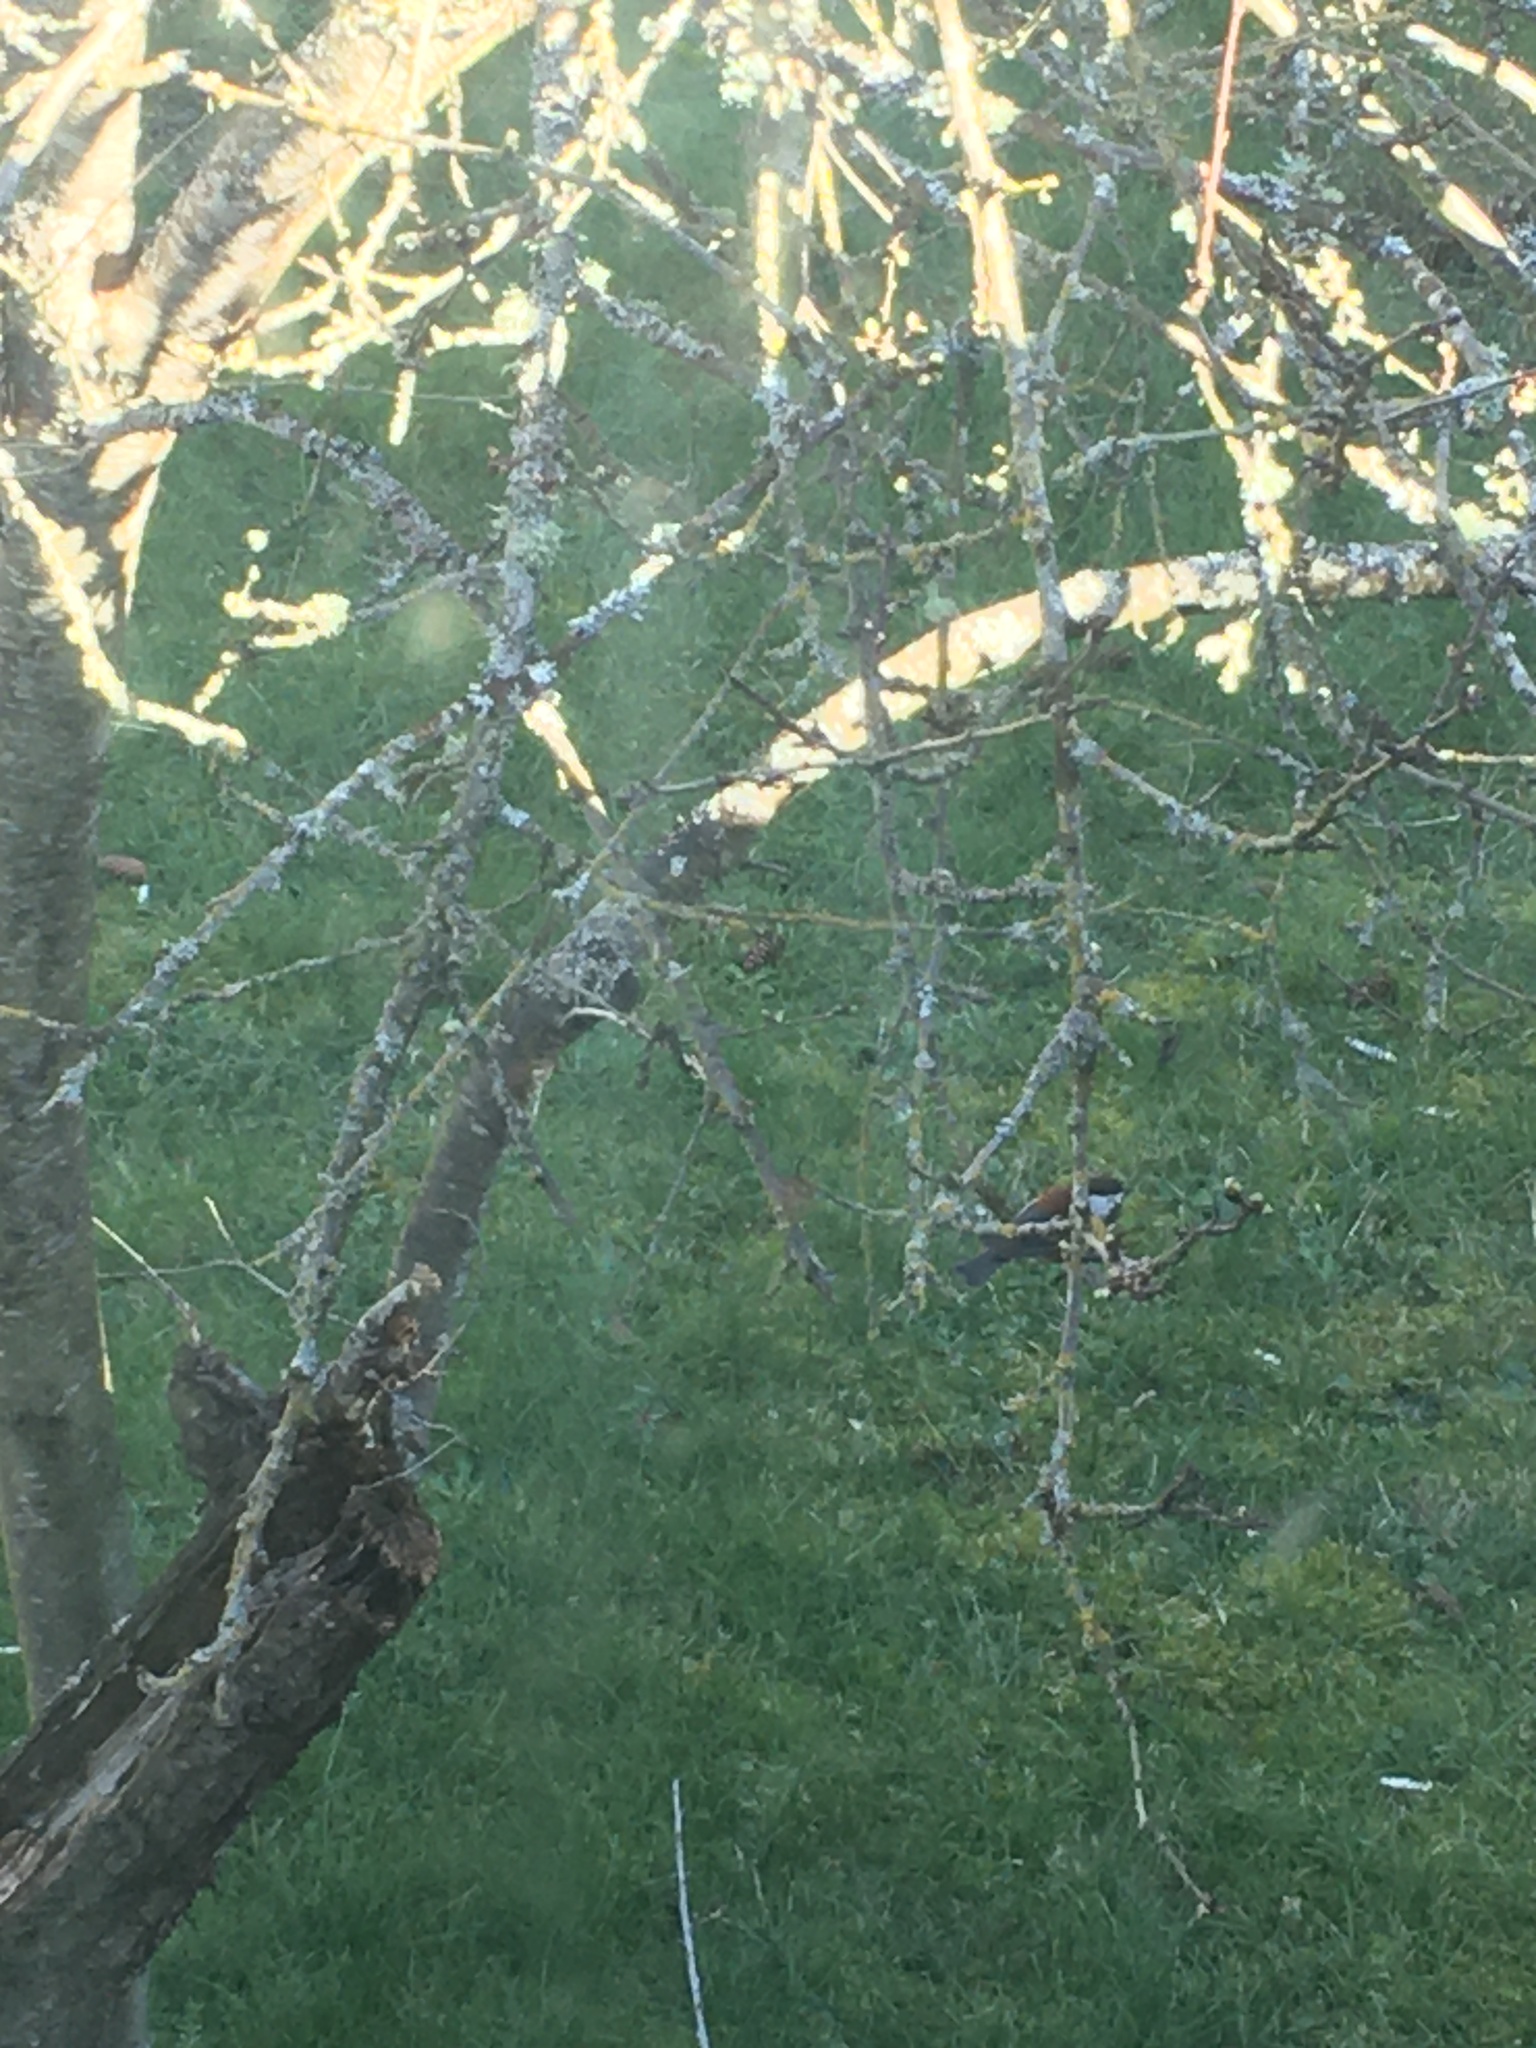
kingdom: Animalia
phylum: Chordata
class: Aves
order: Passeriformes
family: Paridae
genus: Poecile
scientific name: Poecile rufescens
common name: Chestnut-backed chickadee
